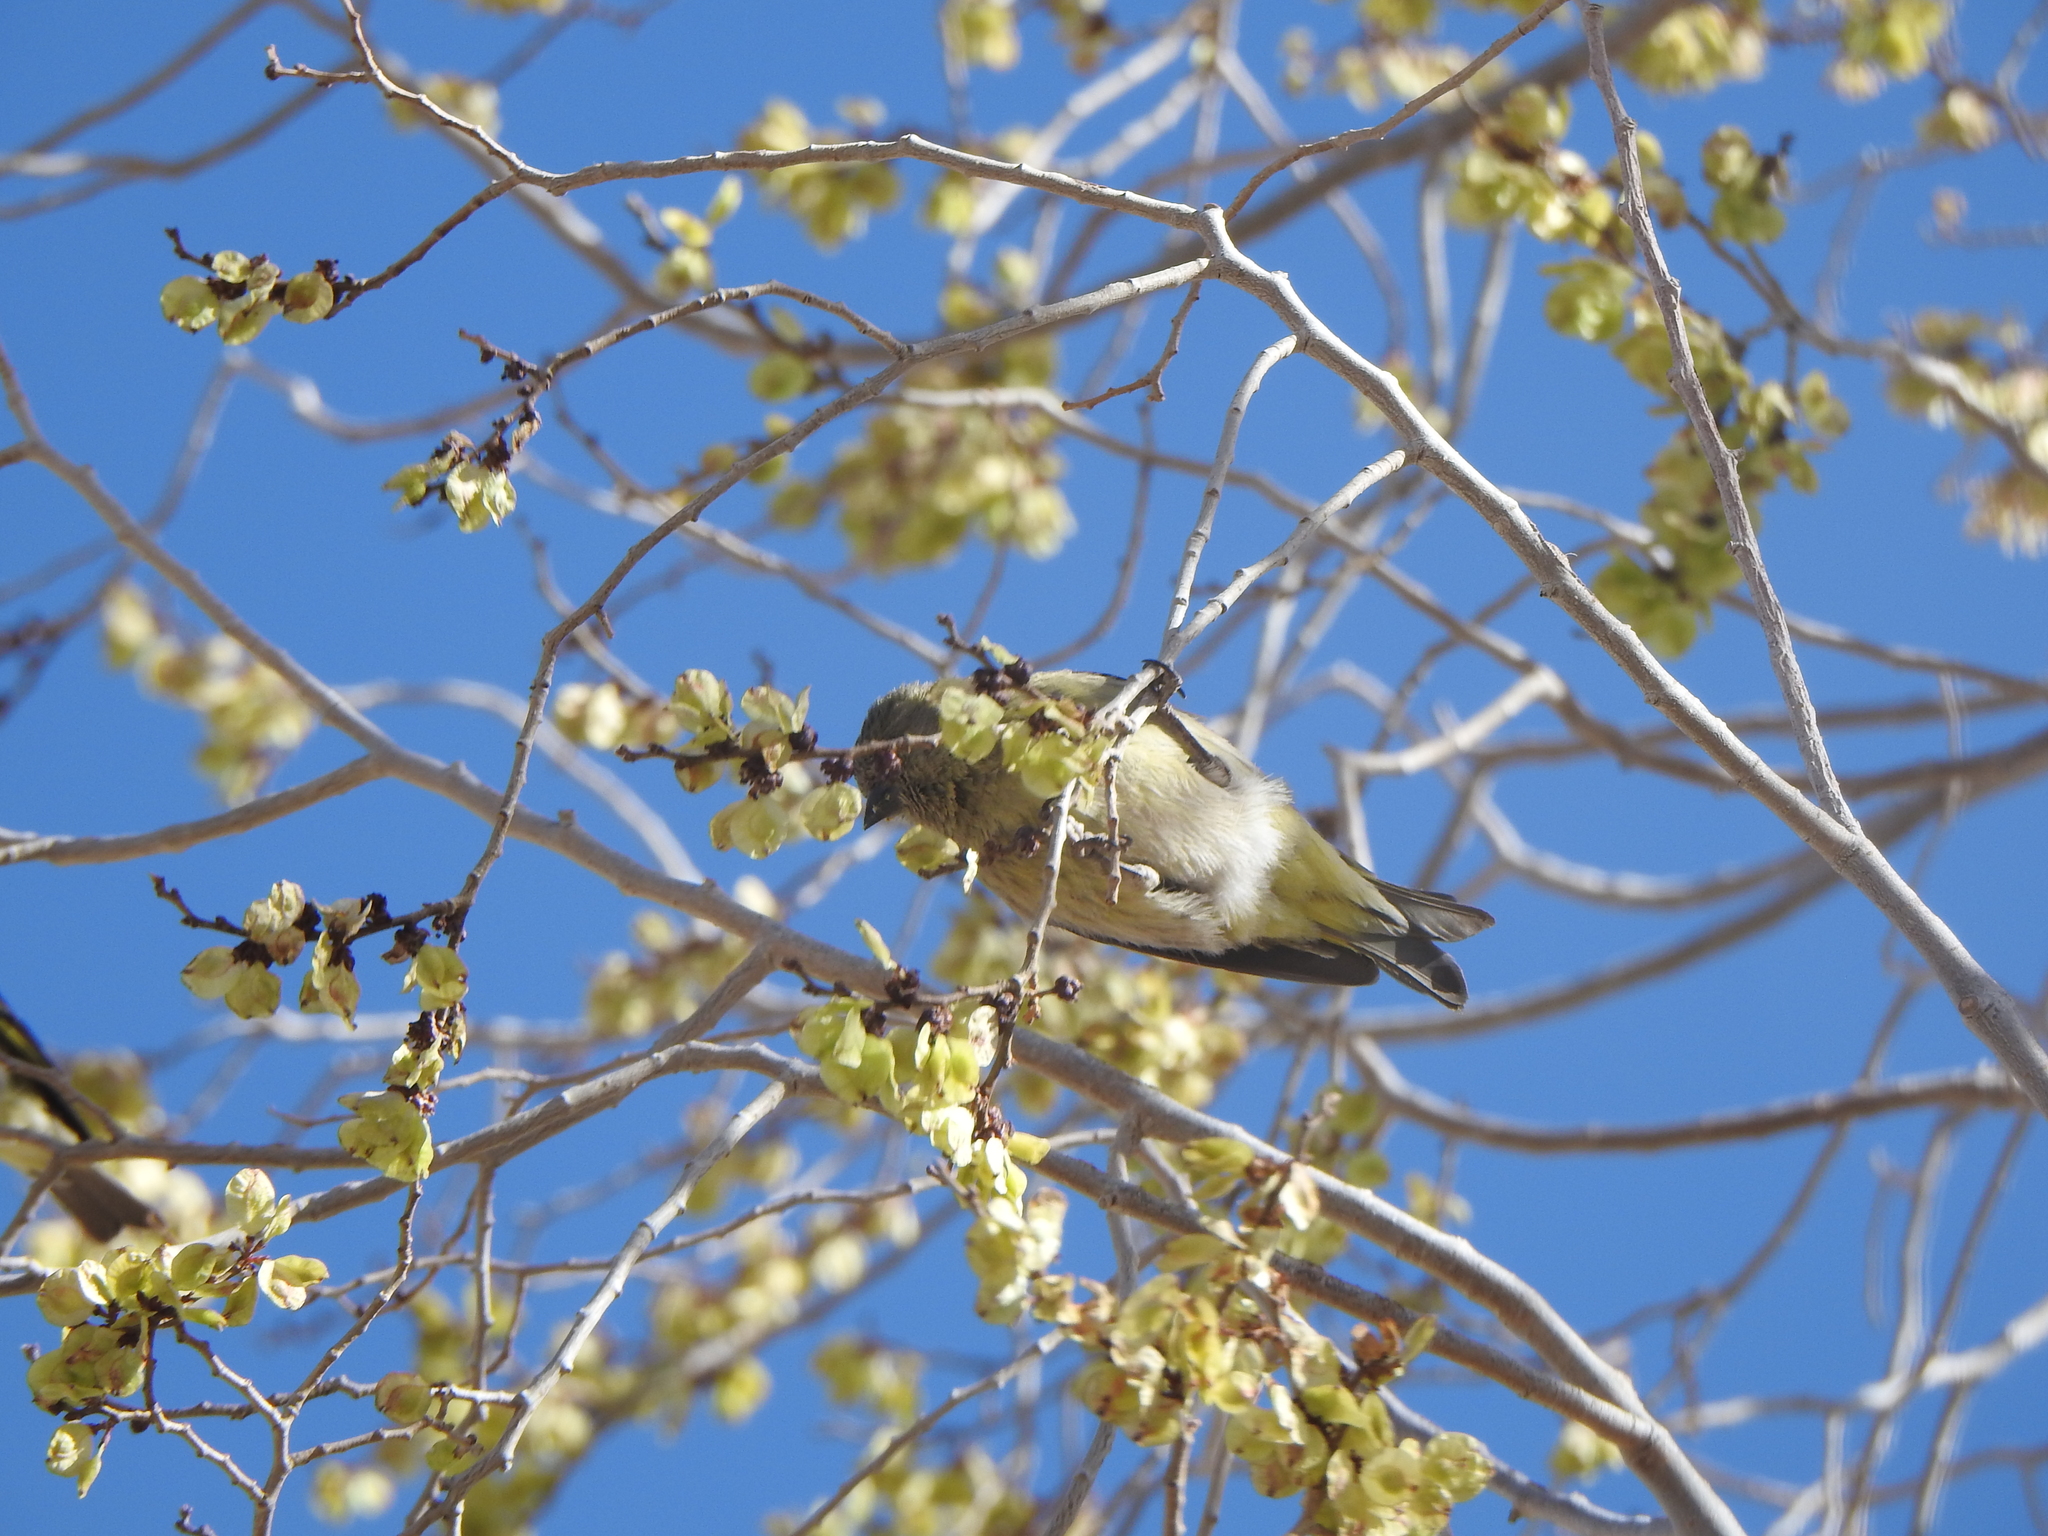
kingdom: Animalia
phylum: Chordata
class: Aves
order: Passeriformes
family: Fringillidae
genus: Spinus
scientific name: Spinus magellanicus
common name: Hooded siskin
